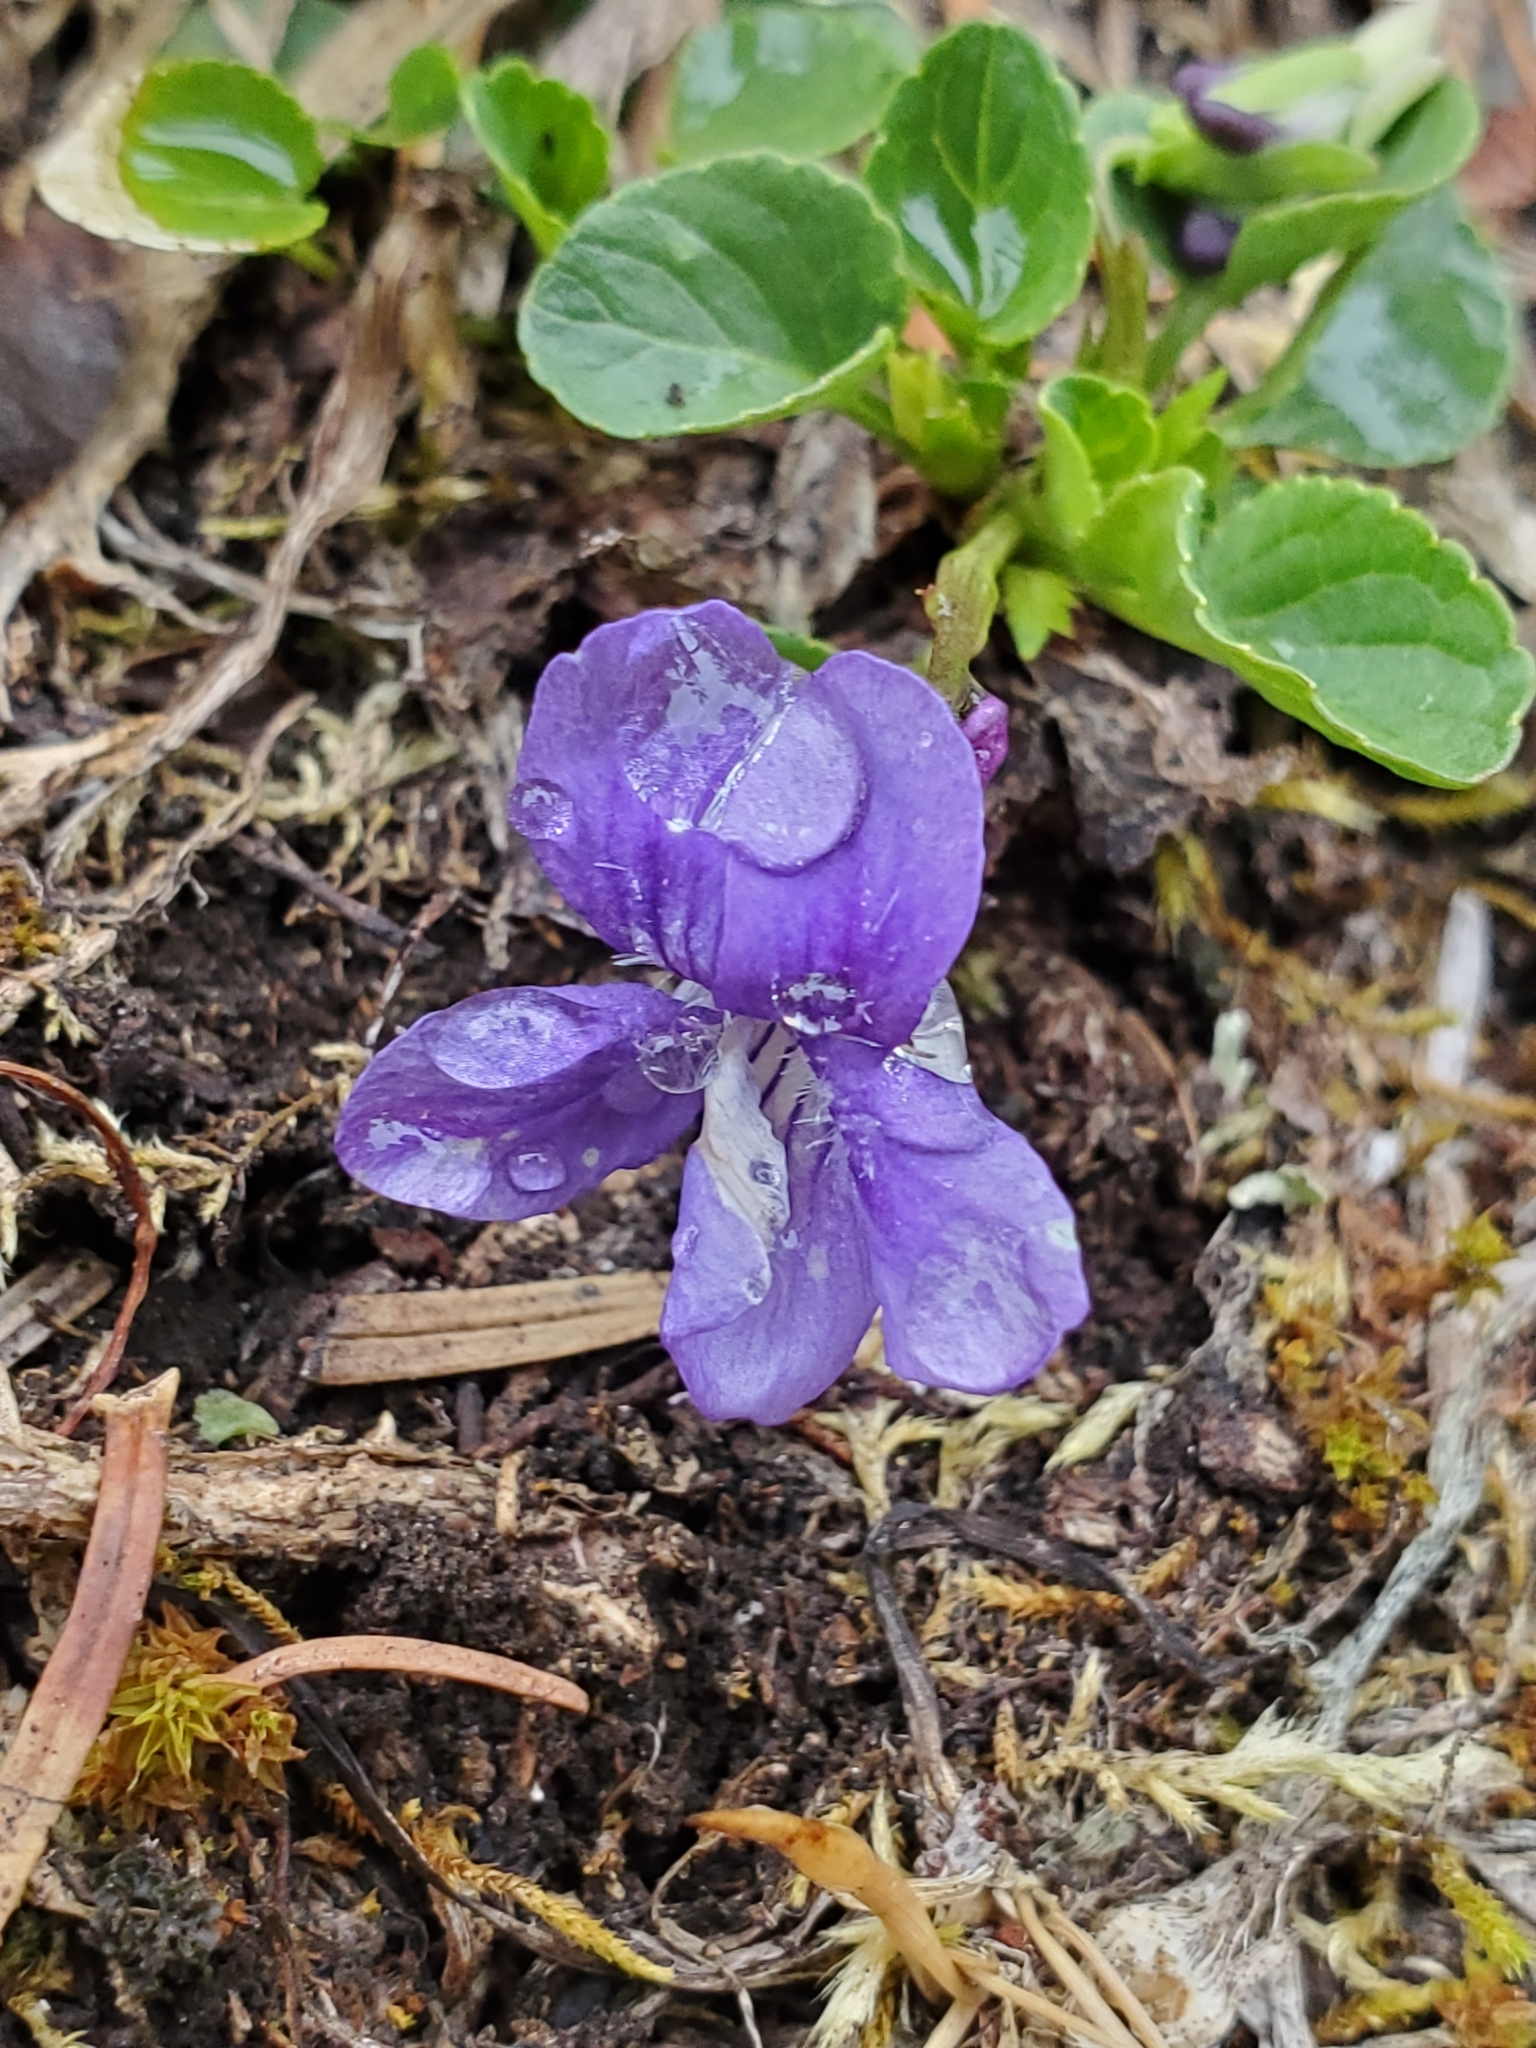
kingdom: Plantae
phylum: Tracheophyta
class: Magnoliopsida
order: Malpighiales
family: Violaceae
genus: Viola
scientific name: Viola adunca
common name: Sand violet
